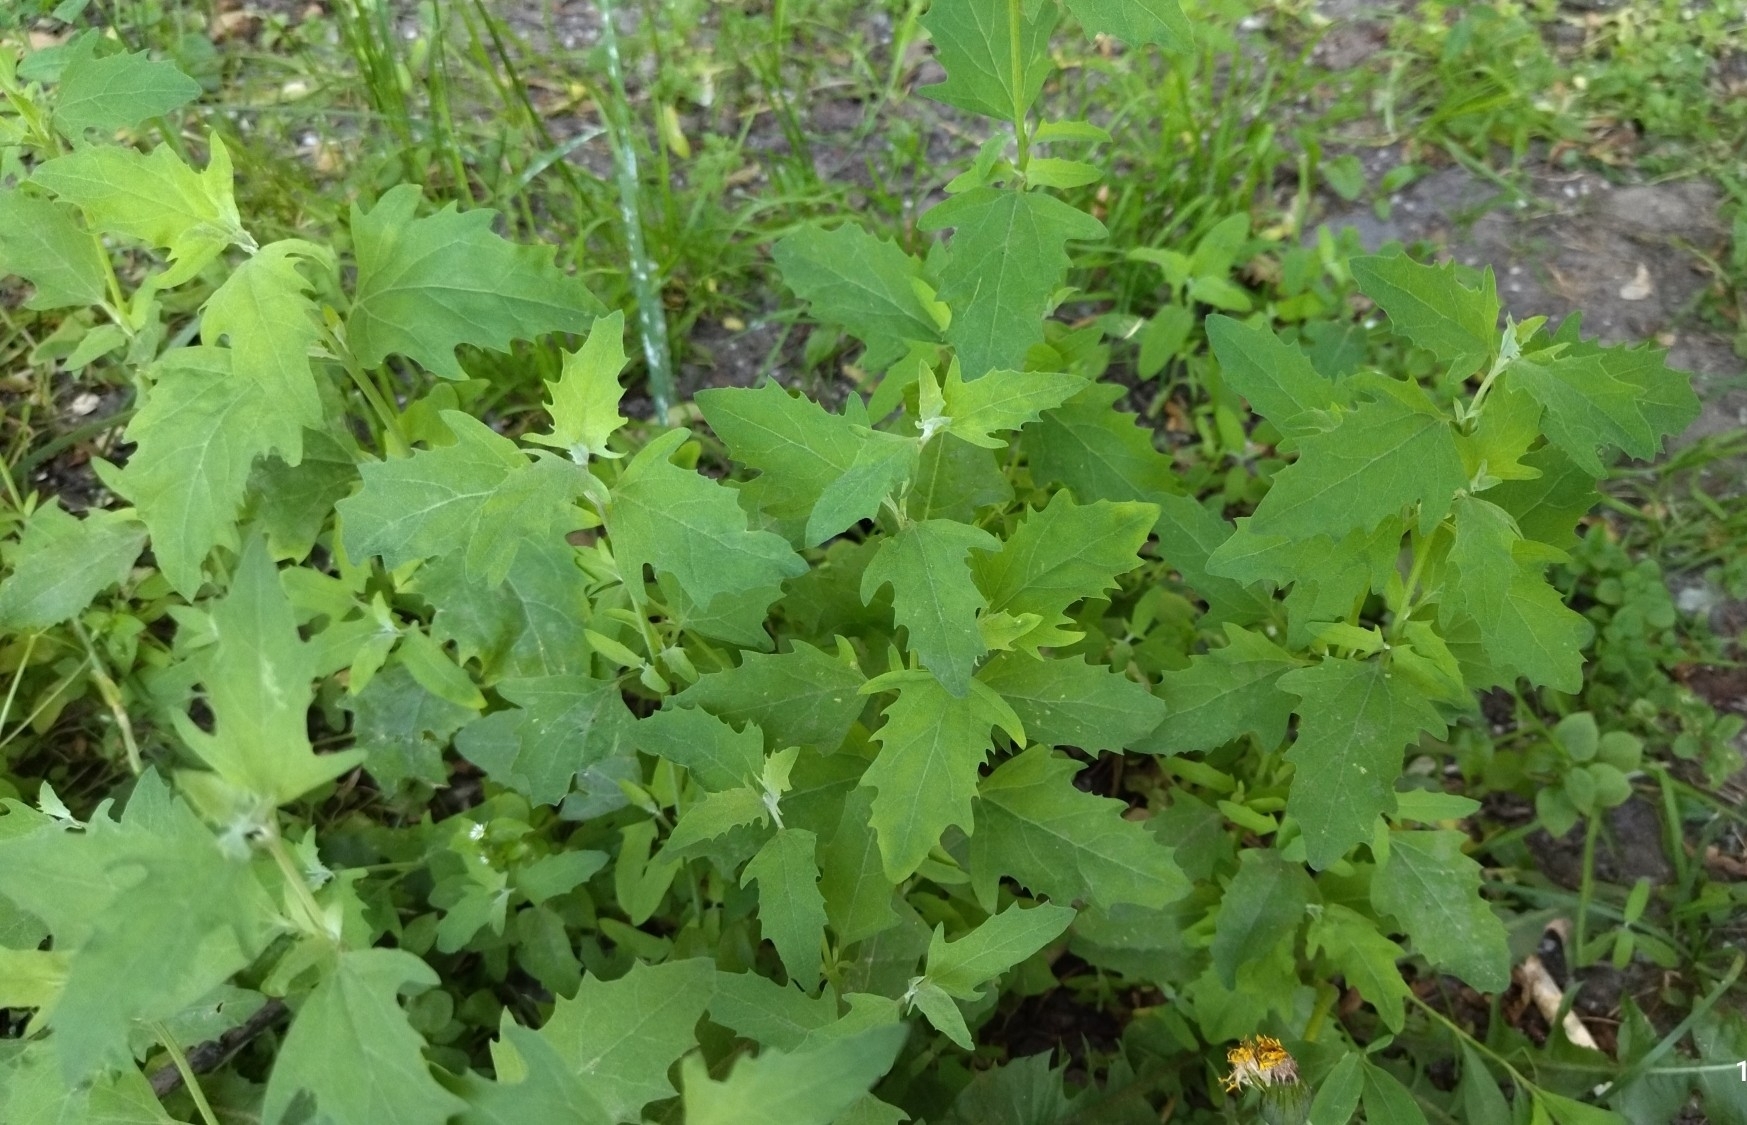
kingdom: Plantae
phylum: Tracheophyta
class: Magnoliopsida
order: Caryophyllales
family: Amaranthaceae
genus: Atriplex
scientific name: Atriplex patula
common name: Common orache
